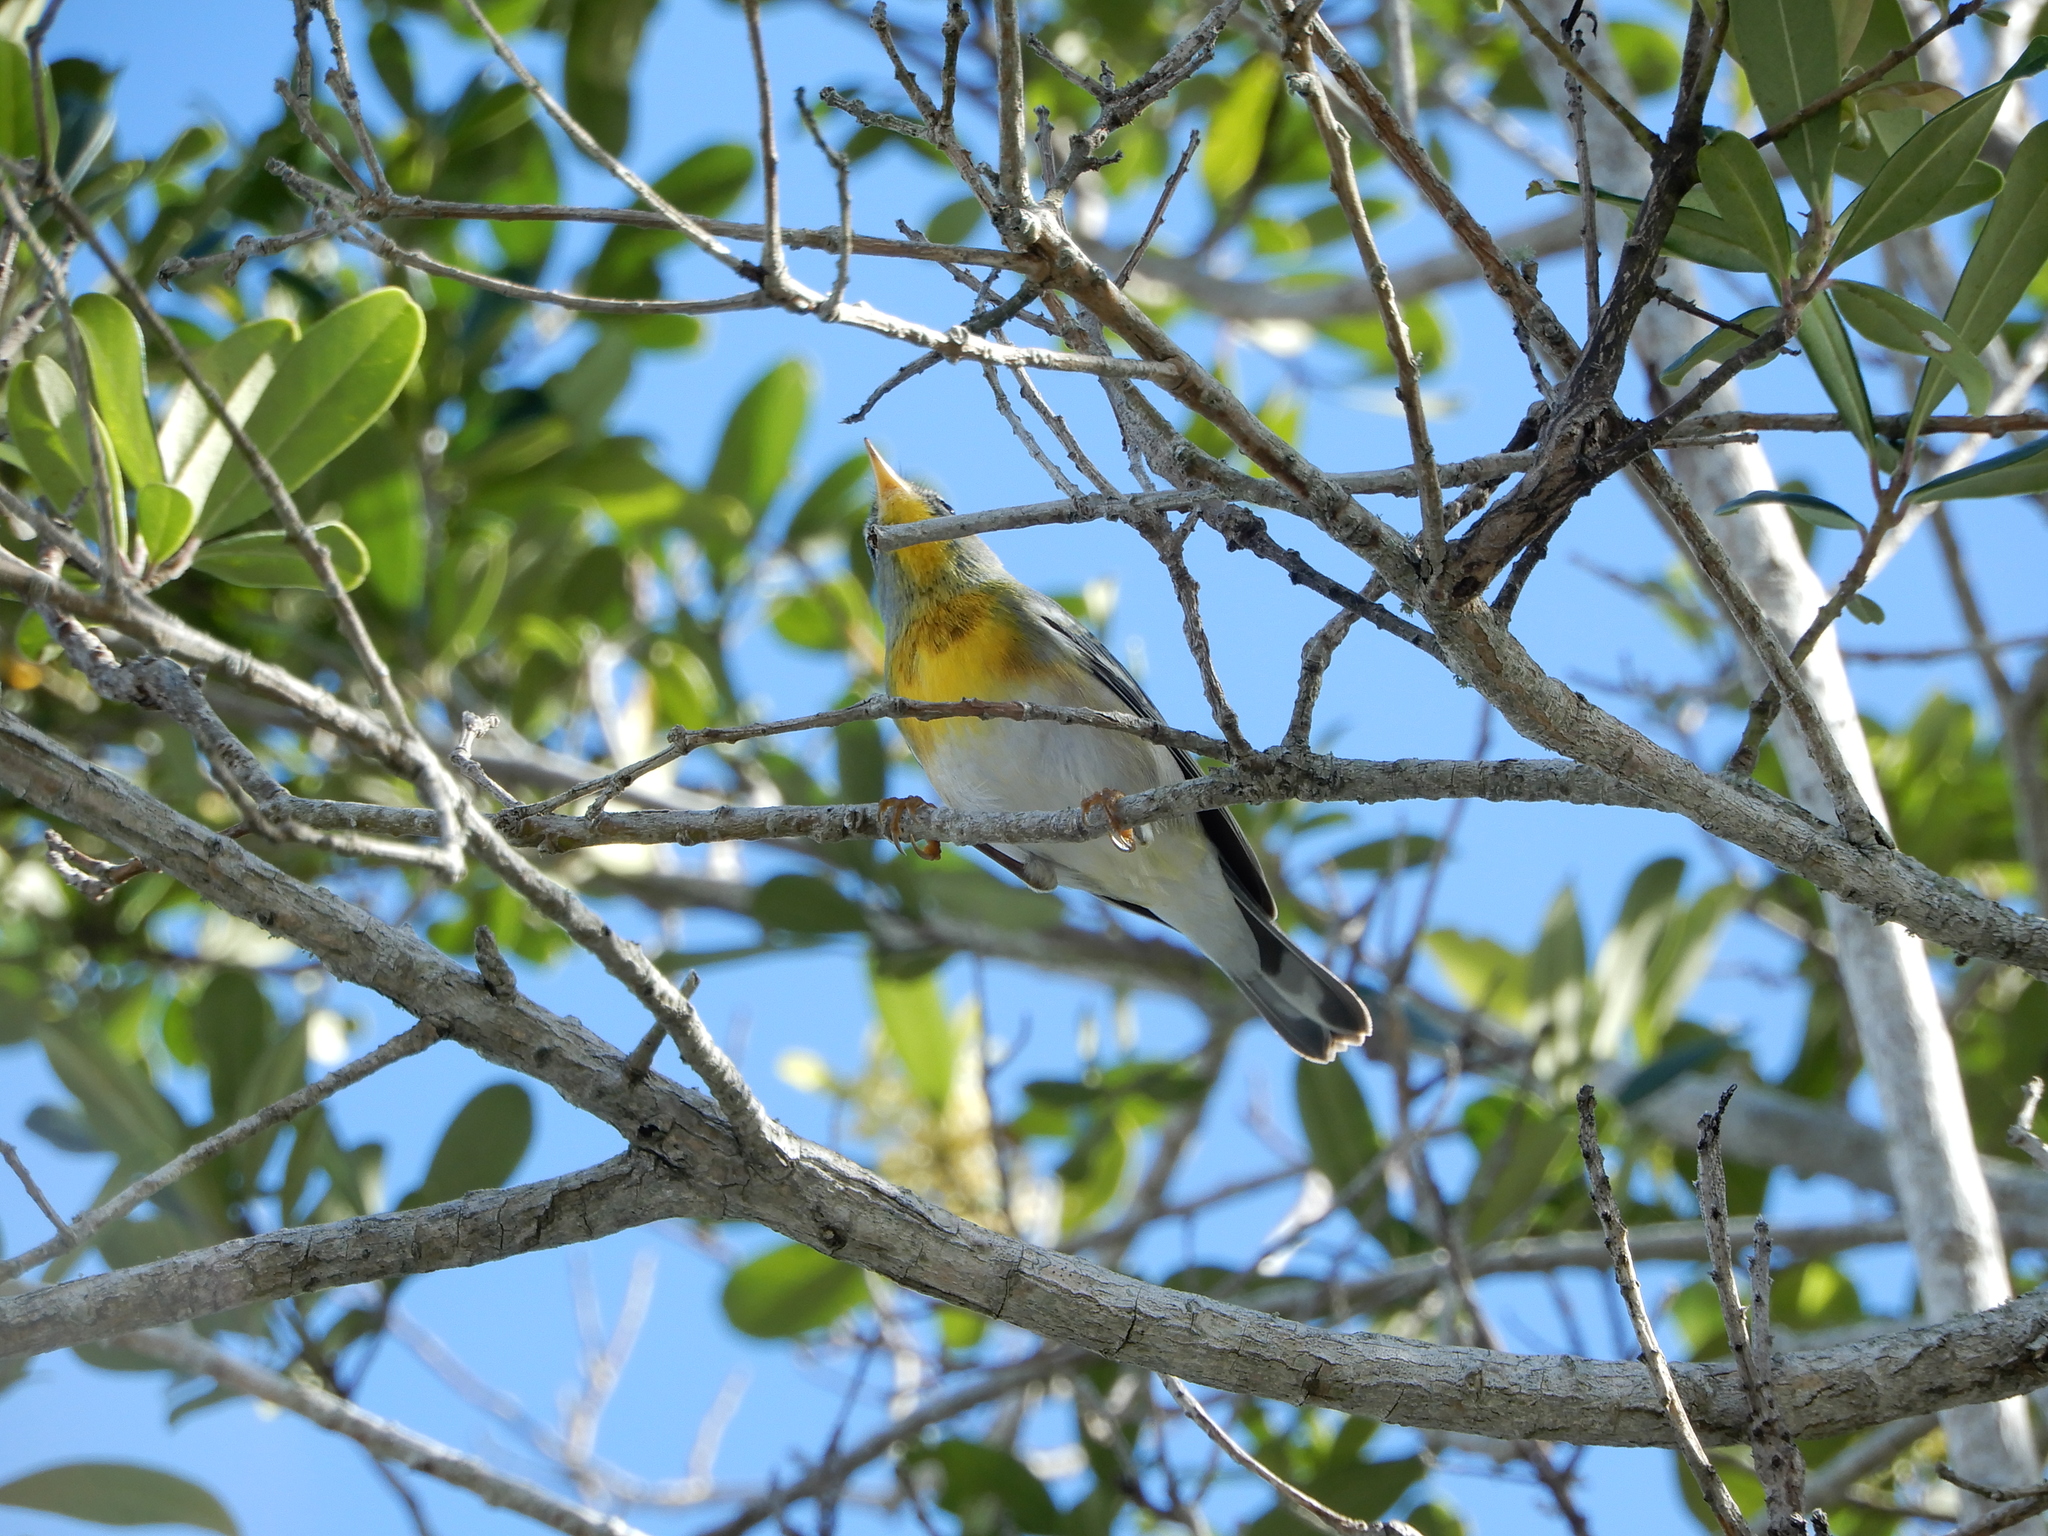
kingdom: Animalia
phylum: Chordata
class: Aves
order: Passeriformes
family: Parulidae
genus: Setophaga
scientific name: Setophaga americana
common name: Northern parula
